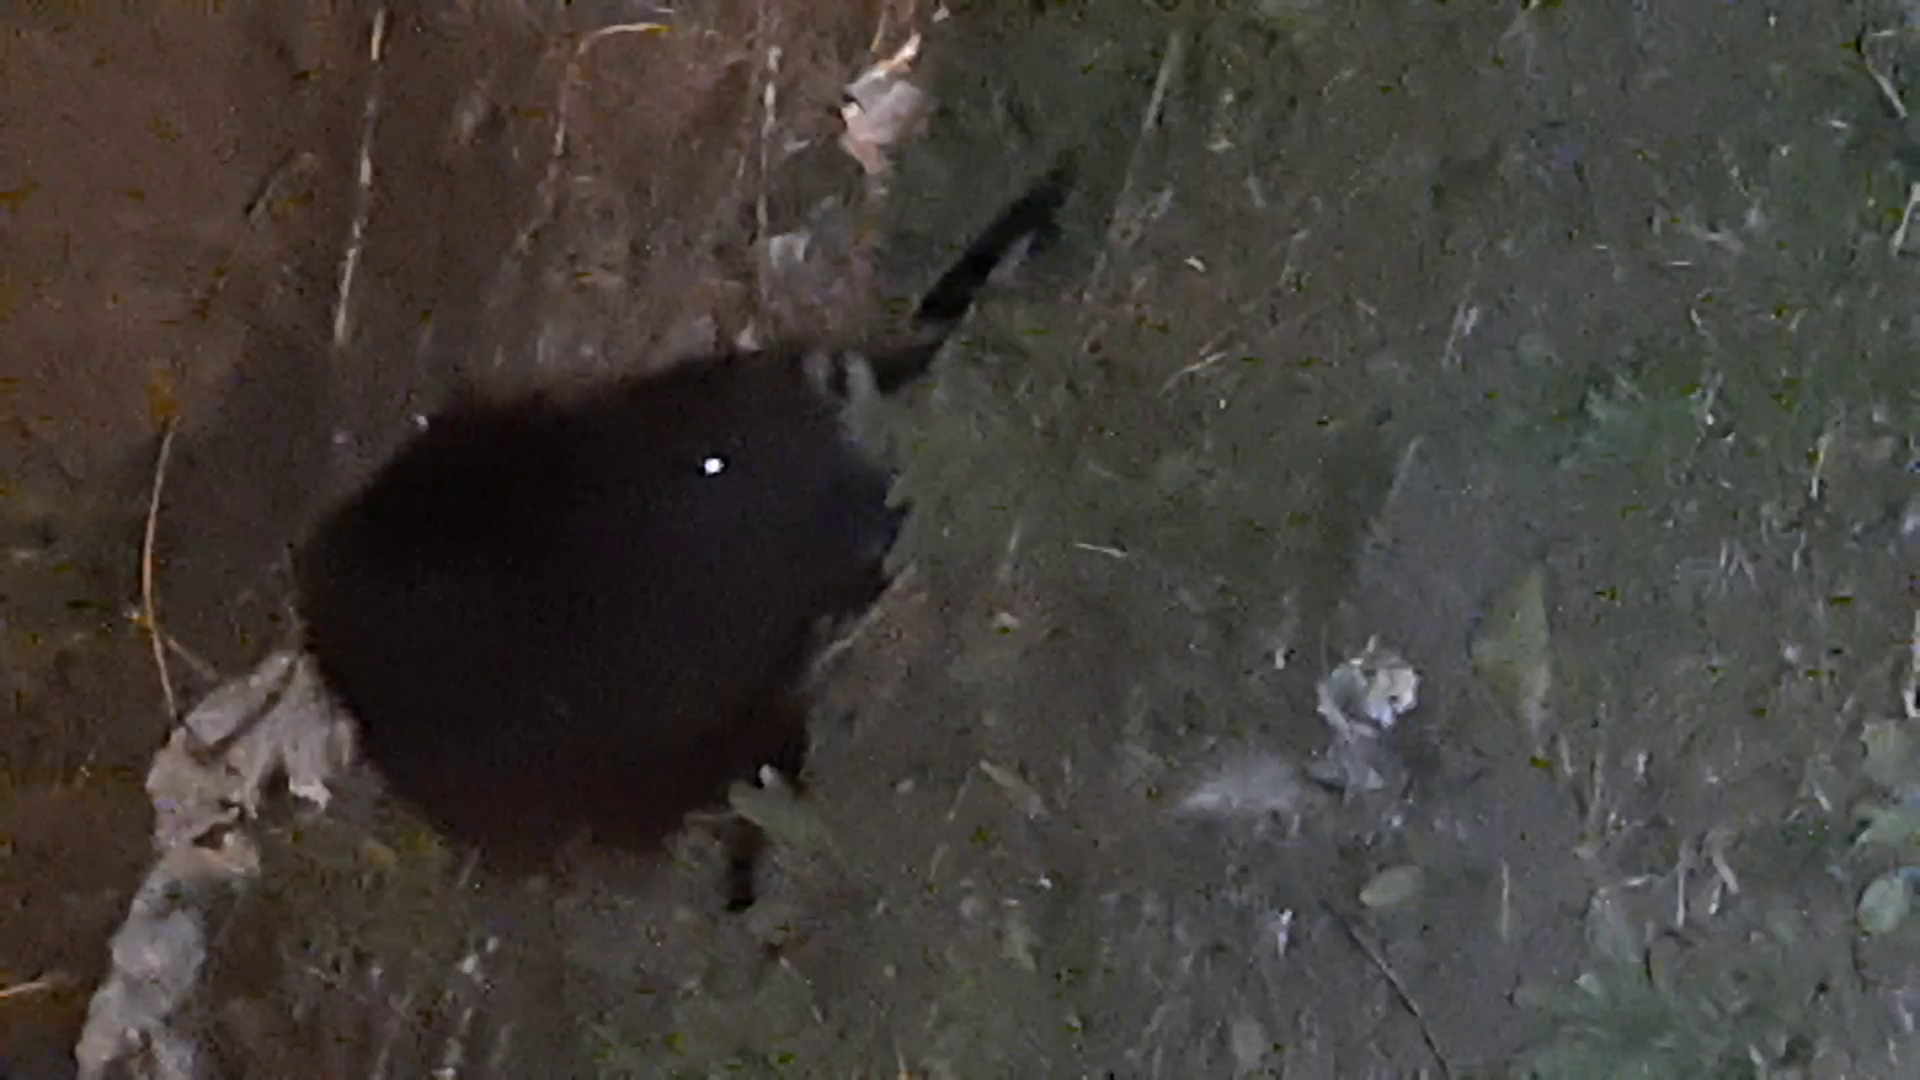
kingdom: Animalia
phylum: Chordata
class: Mammalia
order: Rodentia
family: Myocastoridae
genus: Myocastor
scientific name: Myocastor coypus
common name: Coypu
